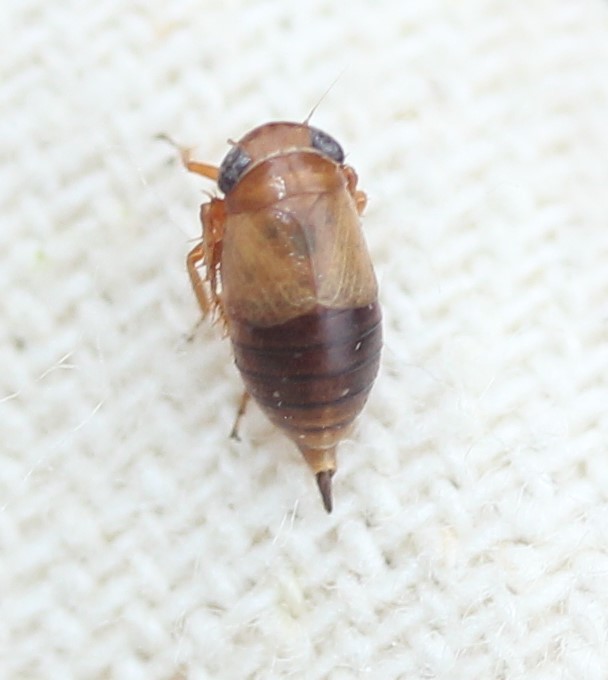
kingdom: Animalia
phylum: Arthropoda
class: Insecta
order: Hemiptera
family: Cicadellidae
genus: Driotura
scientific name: Driotura gammaroides
